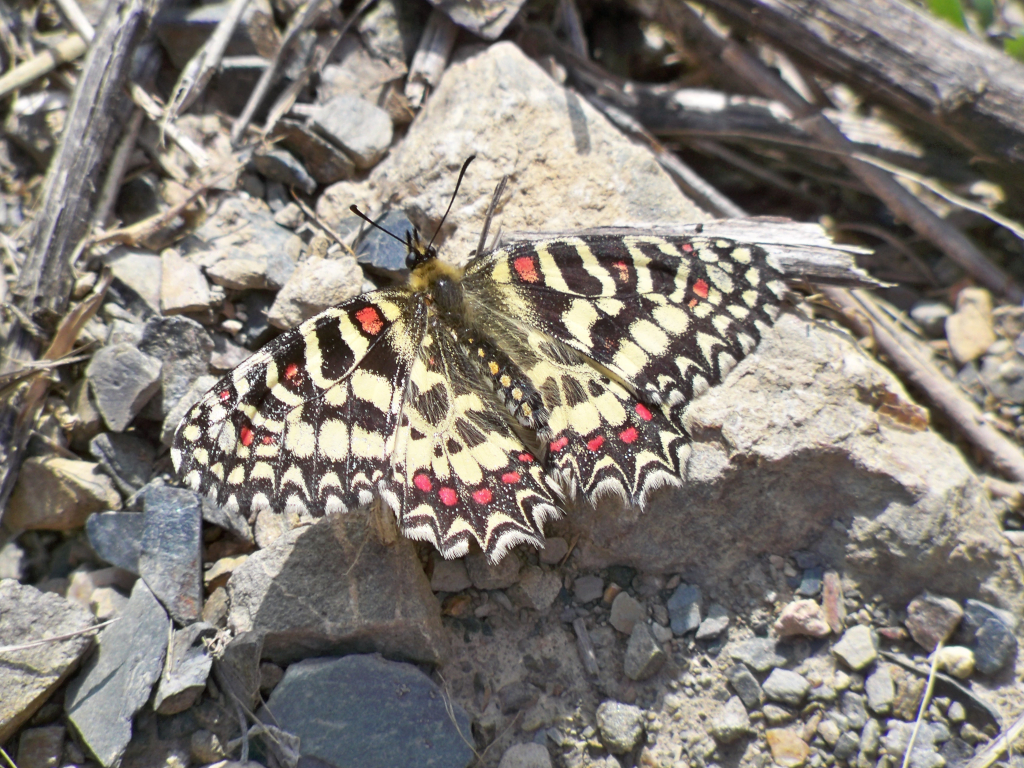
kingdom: Animalia
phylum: Arthropoda
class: Insecta
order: Lepidoptera
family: Papilionidae
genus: Zerynthia
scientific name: Zerynthia rumina
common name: Spanish festoon
